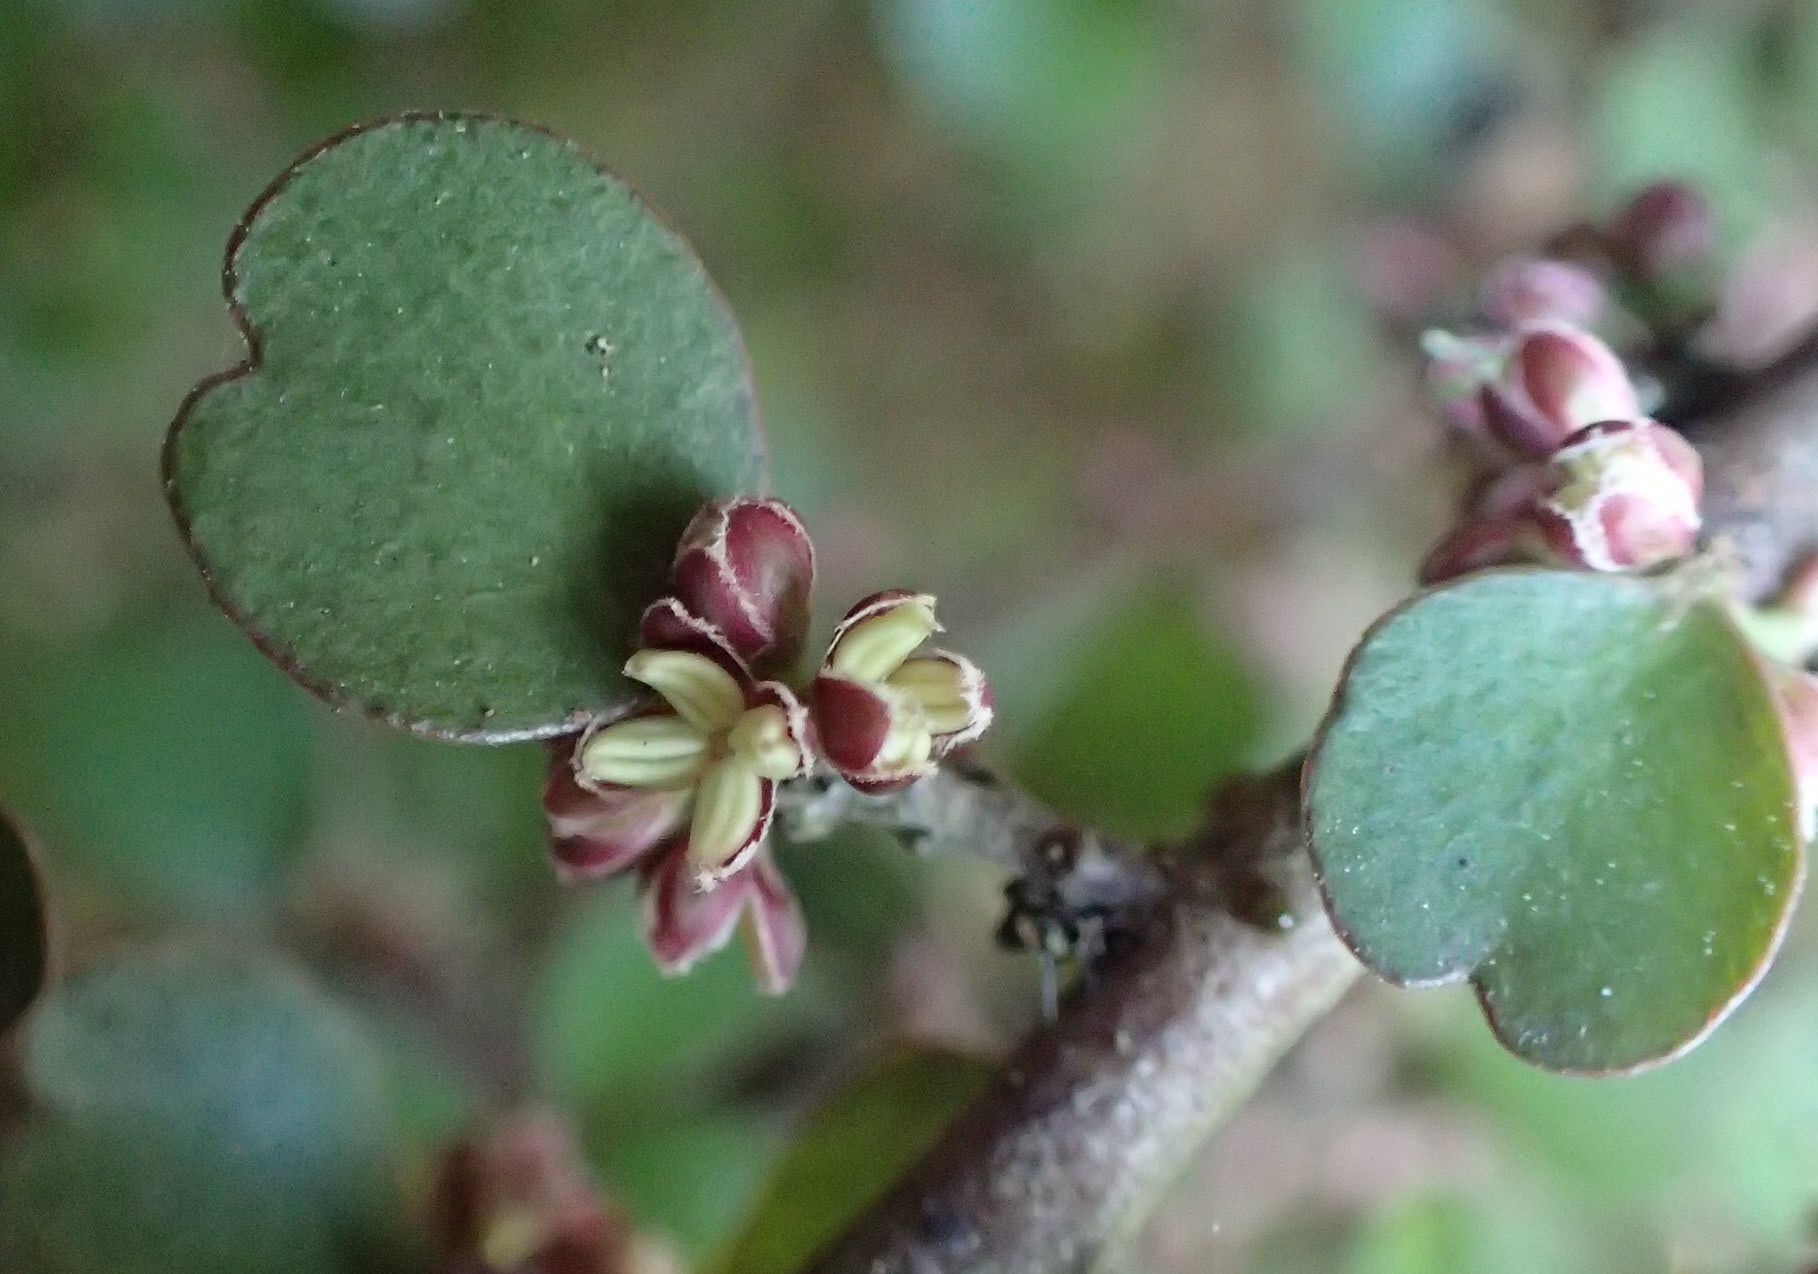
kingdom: Plantae
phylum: Tracheophyta
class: Magnoliopsida
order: Ericales
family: Primulaceae
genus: Myrsine
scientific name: Myrsine divaricata
